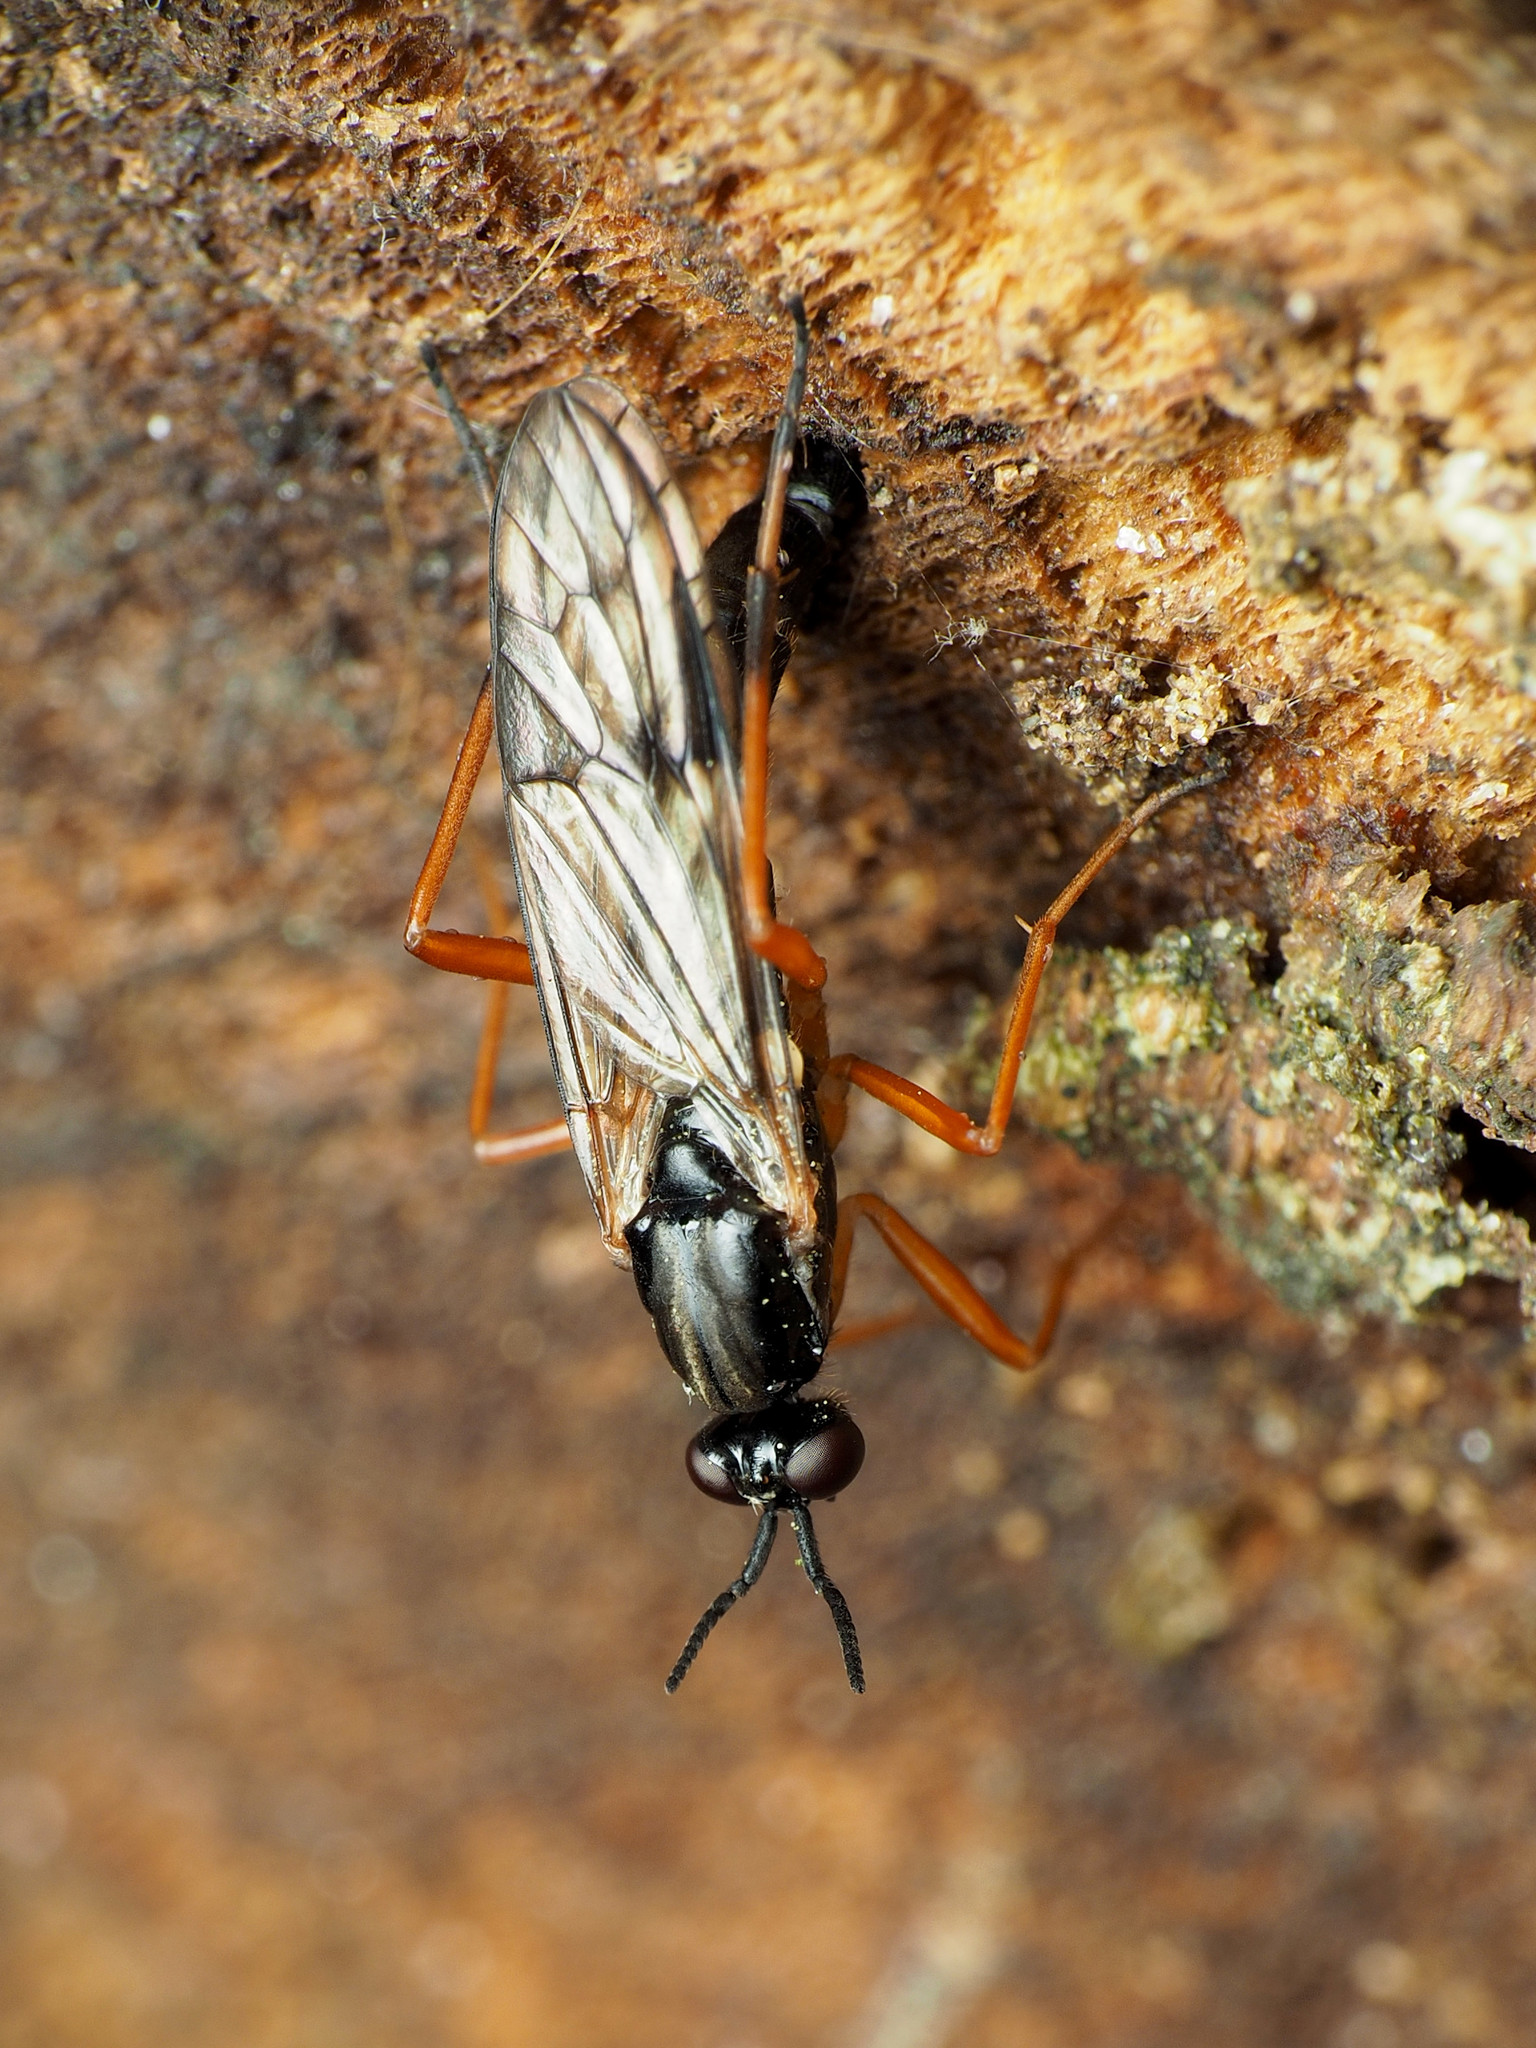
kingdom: Animalia
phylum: Arthropoda
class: Insecta
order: Diptera
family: Xylophagidae
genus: Xylophagus
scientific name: Xylophagus reflectens
